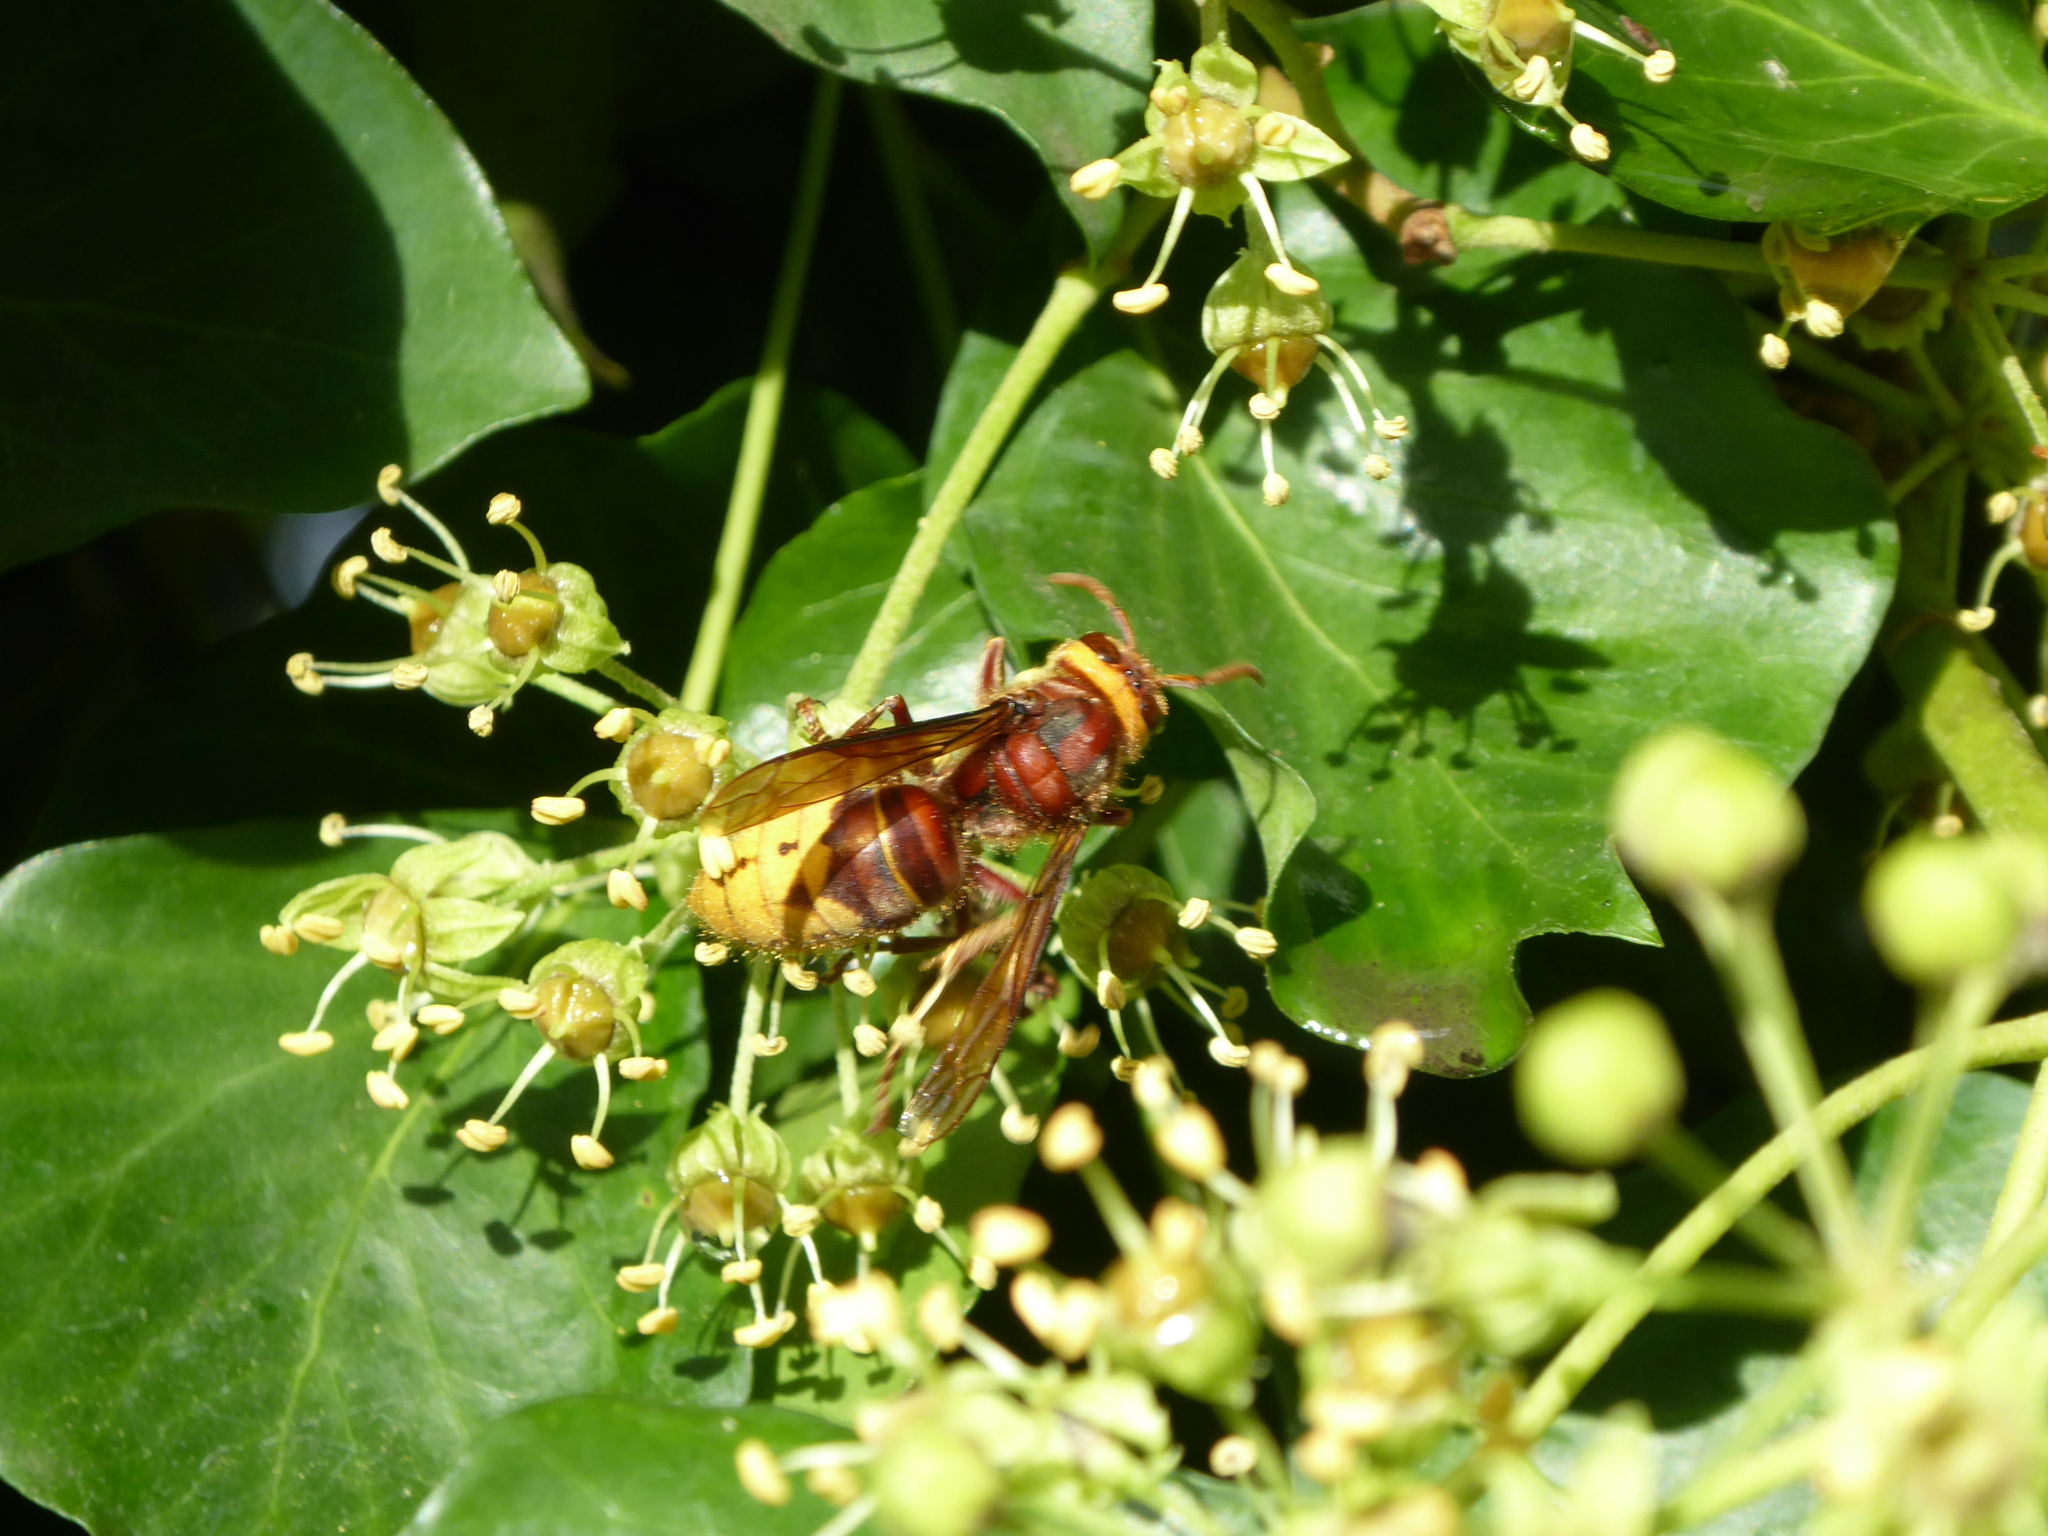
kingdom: Animalia
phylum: Arthropoda
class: Insecta
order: Hymenoptera
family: Vespidae
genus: Vespa
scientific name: Vespa crabro
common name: Hornet
